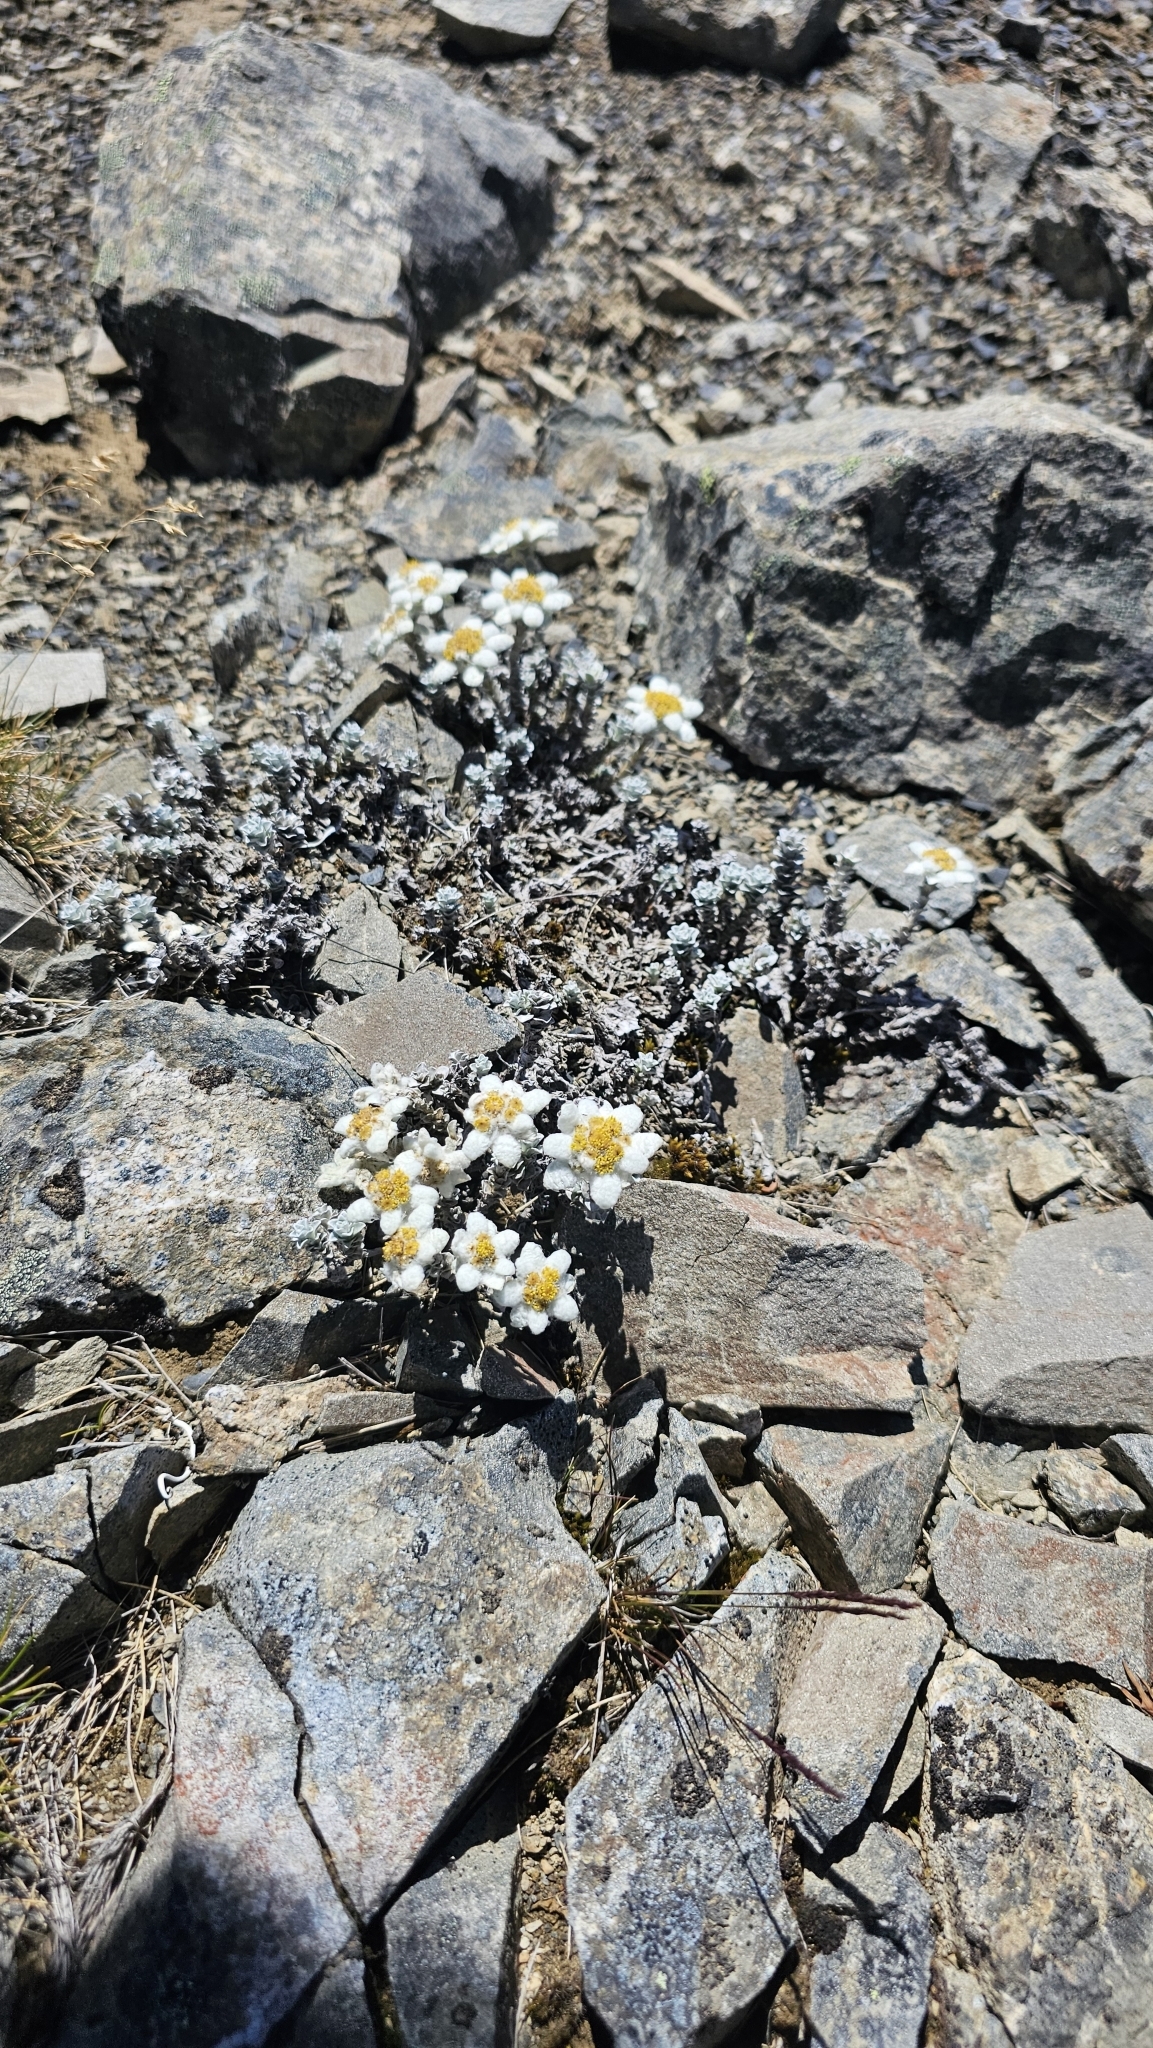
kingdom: Plantae
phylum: Tracheophyta
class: Magnoliopsida
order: Asterales
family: Asteraceae
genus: Leucogenes
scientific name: Leucogenes grandiceps
